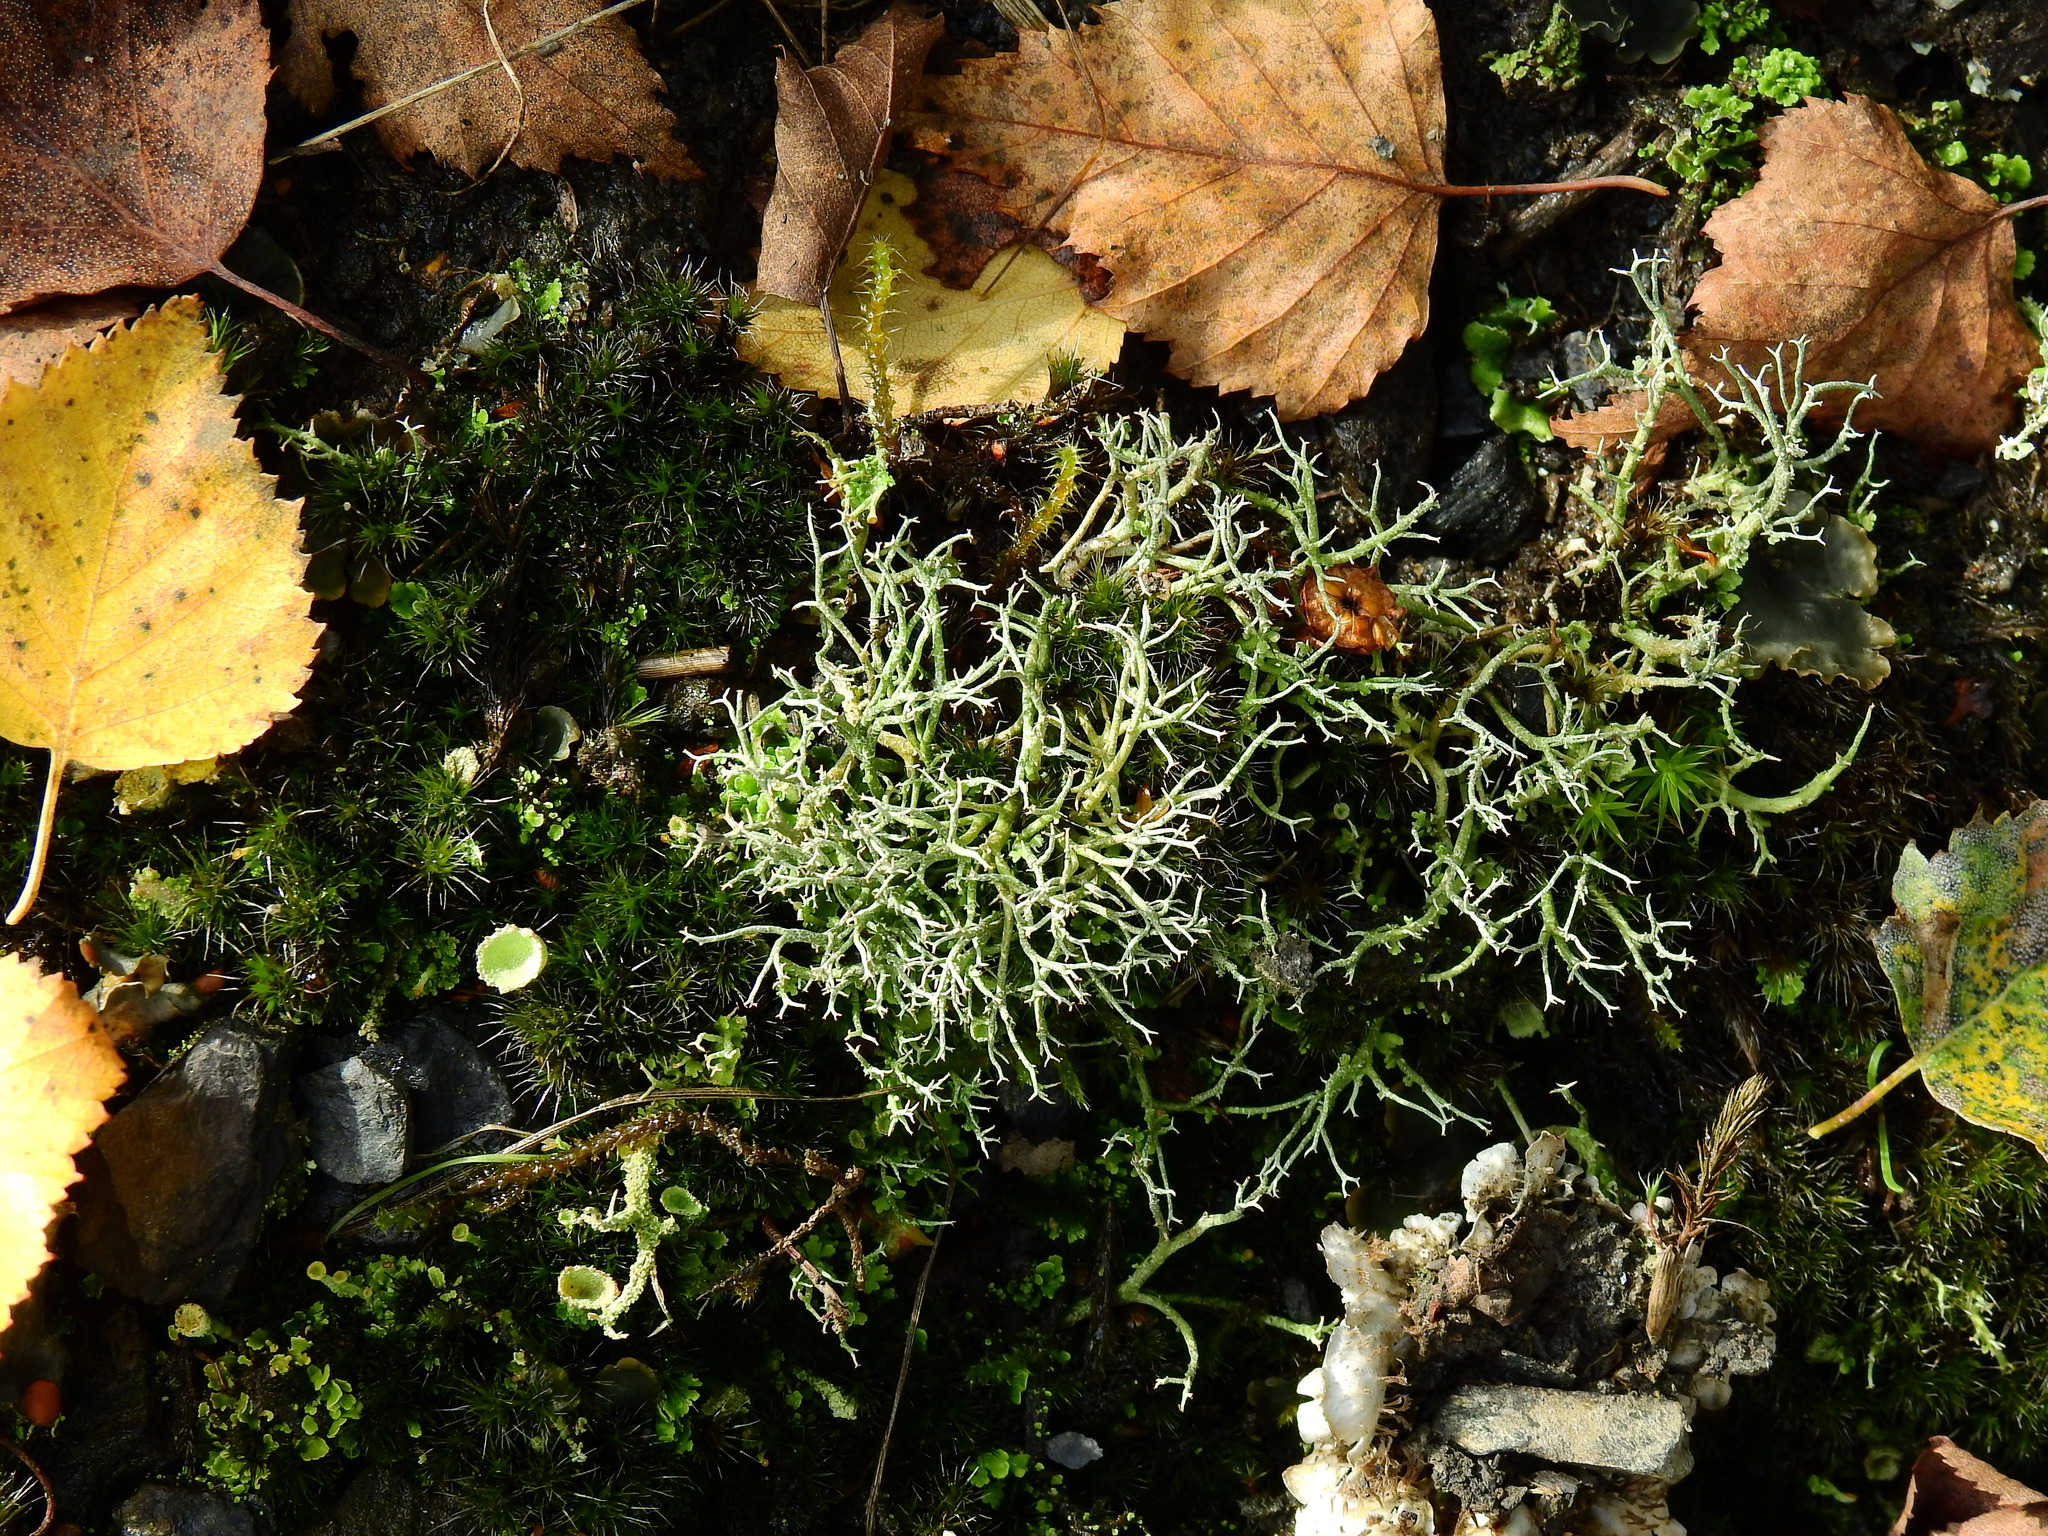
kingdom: Fungi
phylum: Ascomycota
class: Lecanoromycetes
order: Lecanorales
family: Cladoniaceae
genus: Cladonia
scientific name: Cladonia furcata
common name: Many-forked cladonia
